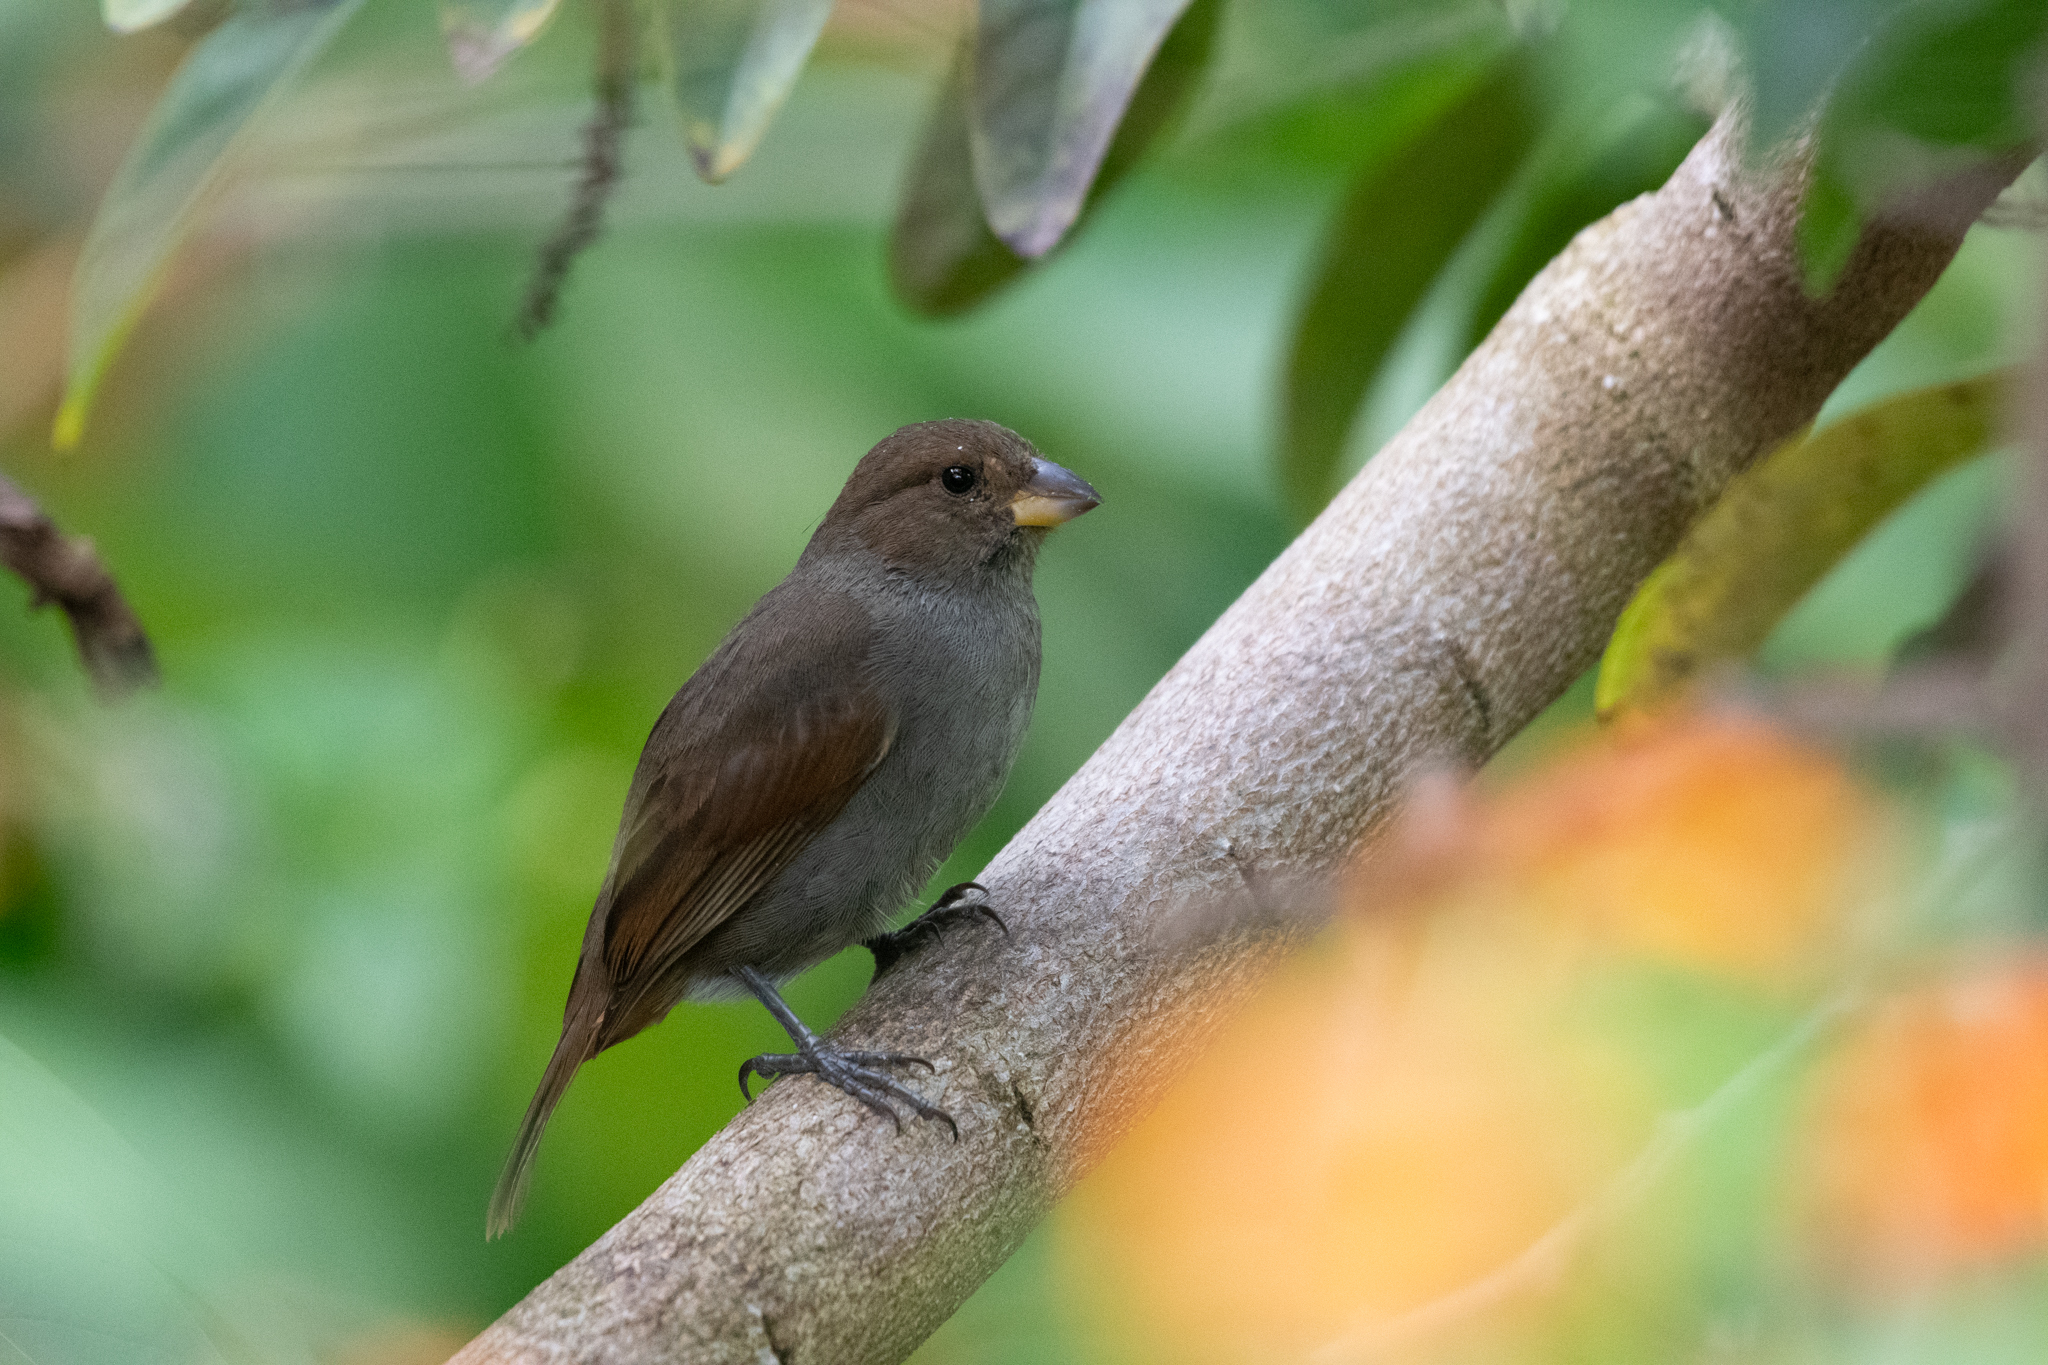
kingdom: Animalia
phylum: Chordata
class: Aves
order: Passeriformes
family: Thraupidae
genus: Loxigilla
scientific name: Loxigilla noctis
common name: Lesser antillean bullfinch
